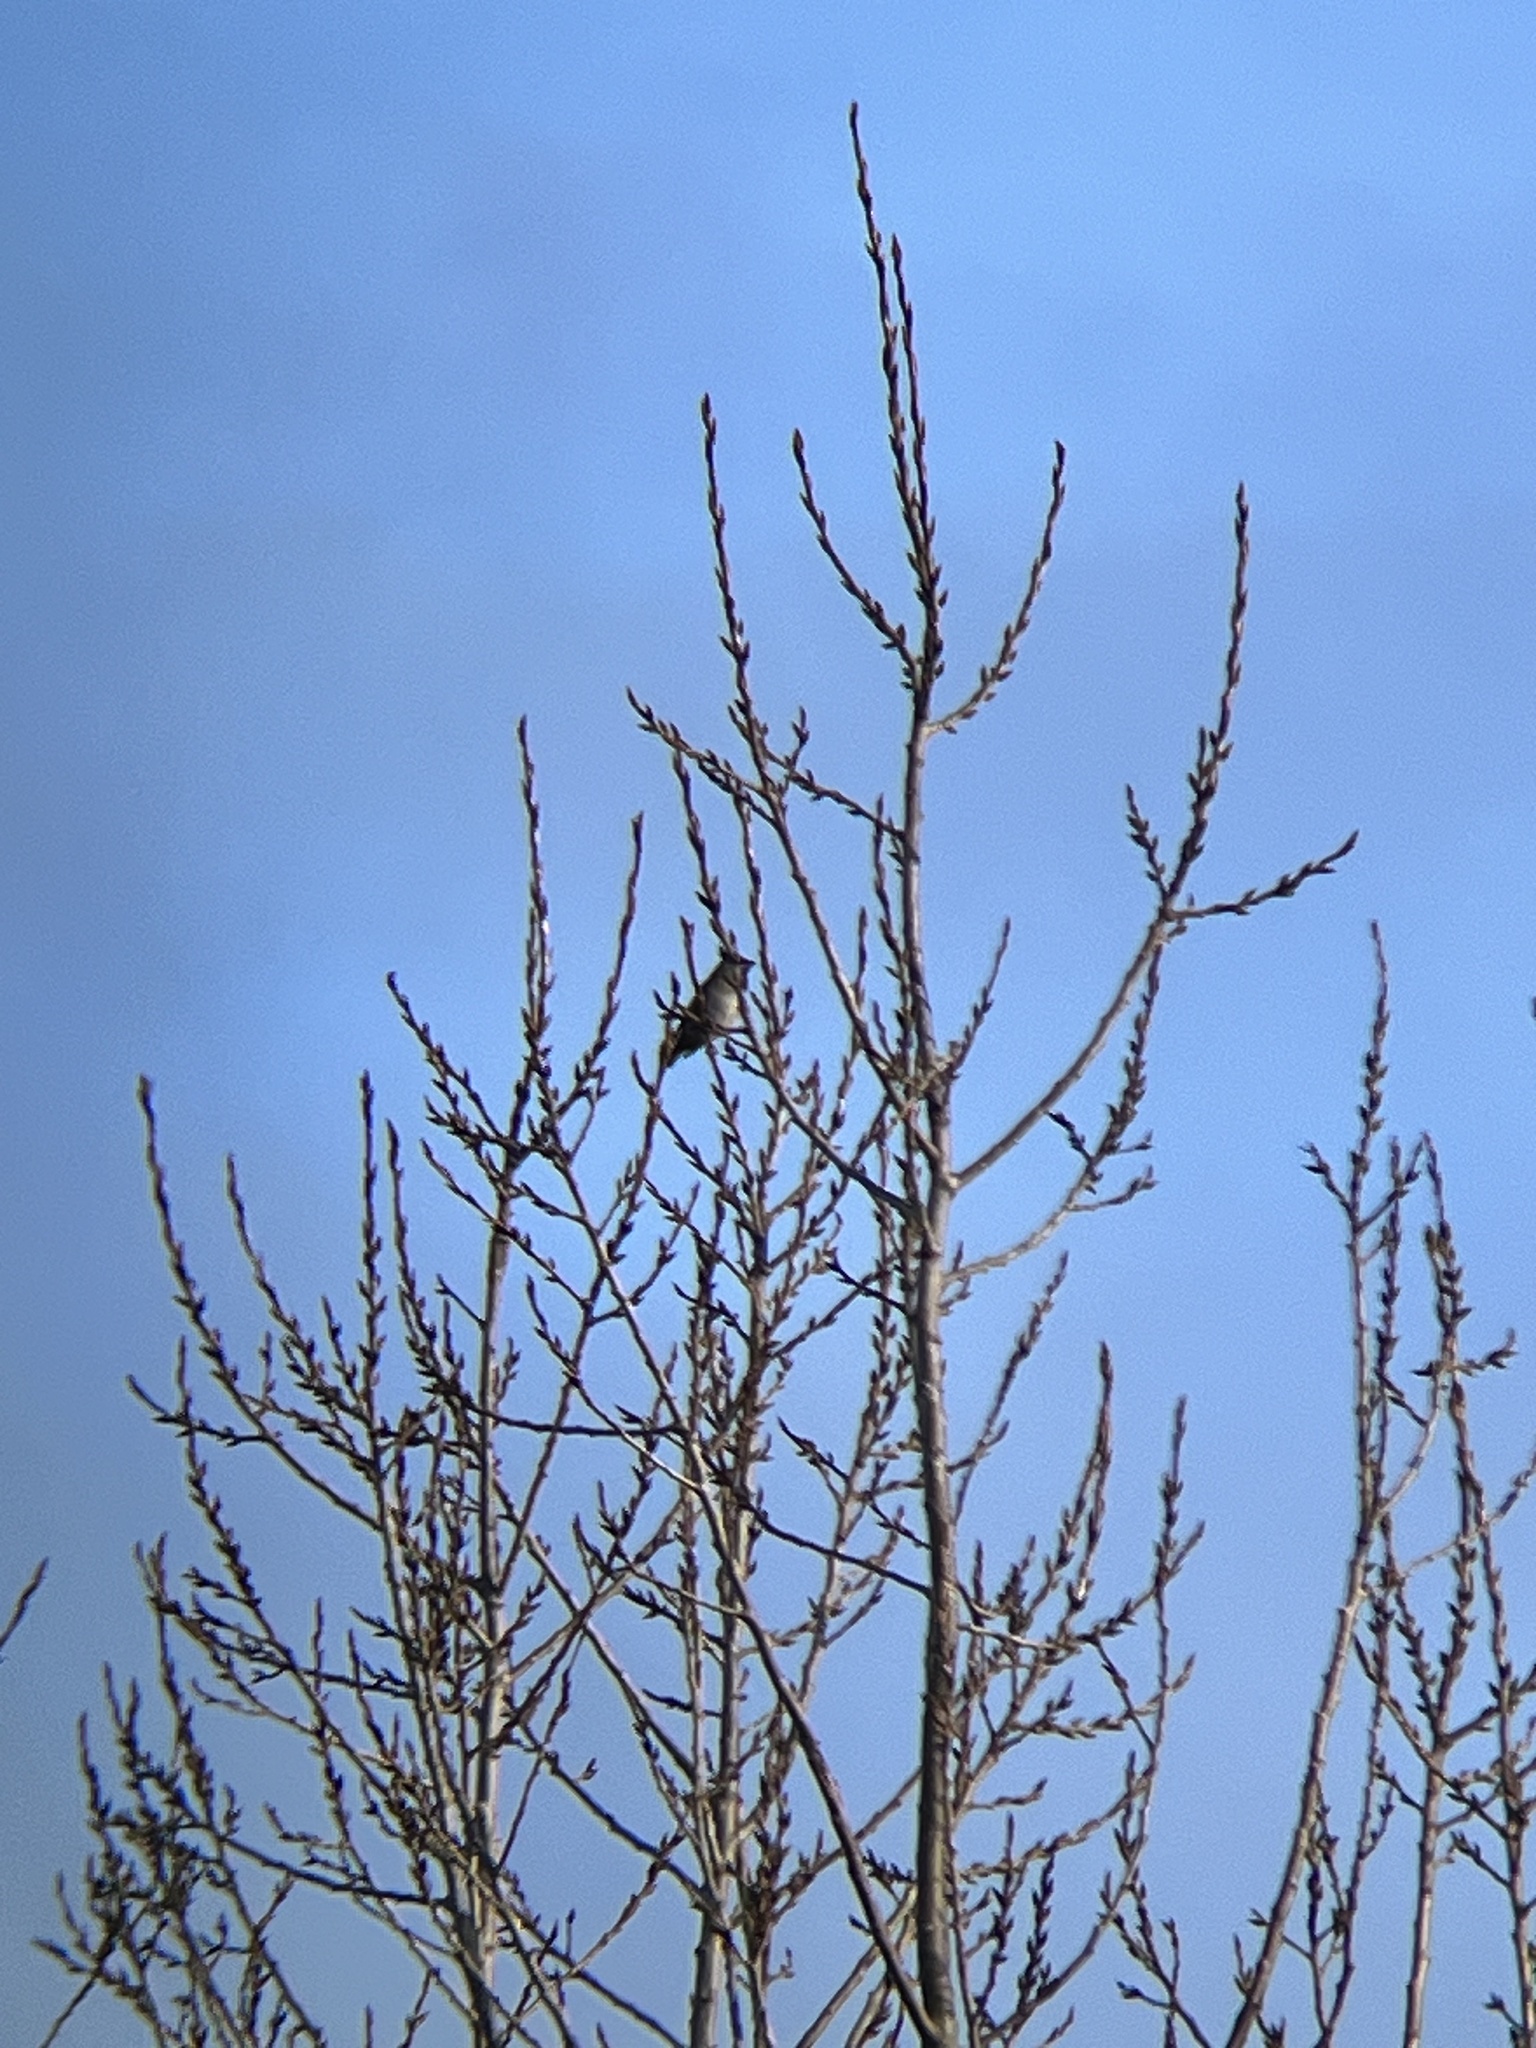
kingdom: Animalia
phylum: Chordata
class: Aves
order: Passeriformes
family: Bombycillidae
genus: Bombycilla
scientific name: Bombycilla garrulus
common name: Bohemian waxwing
